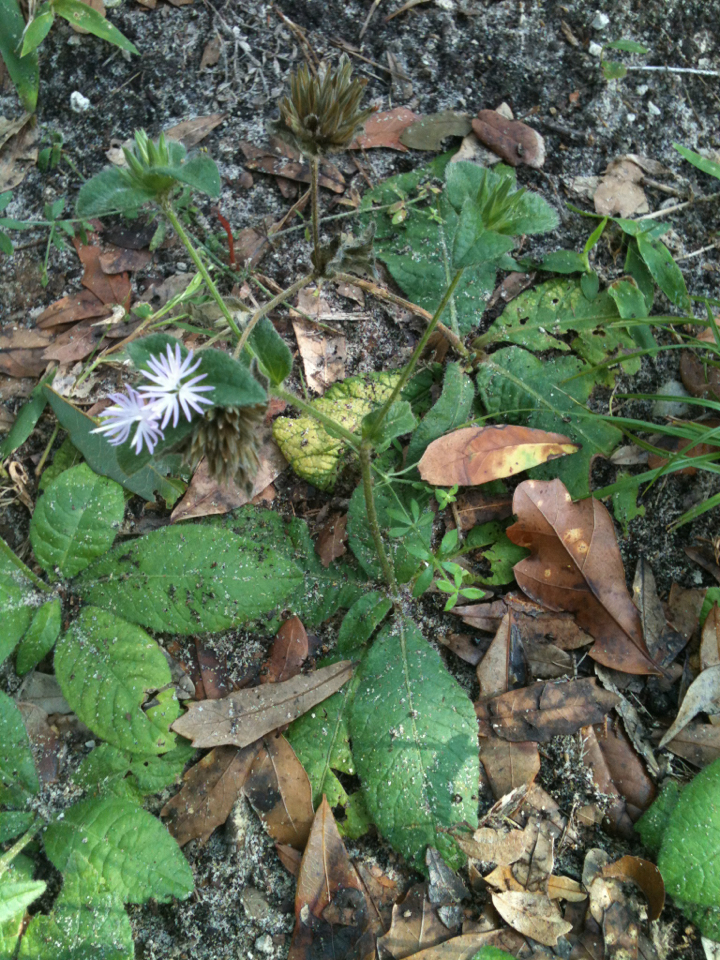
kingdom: Plantae
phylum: Tracheophyta
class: Magnoliopsida
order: Asterales
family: Asteraceae
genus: Elephantopus
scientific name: Elephantopus tomentosus
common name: Tobacco-weed
